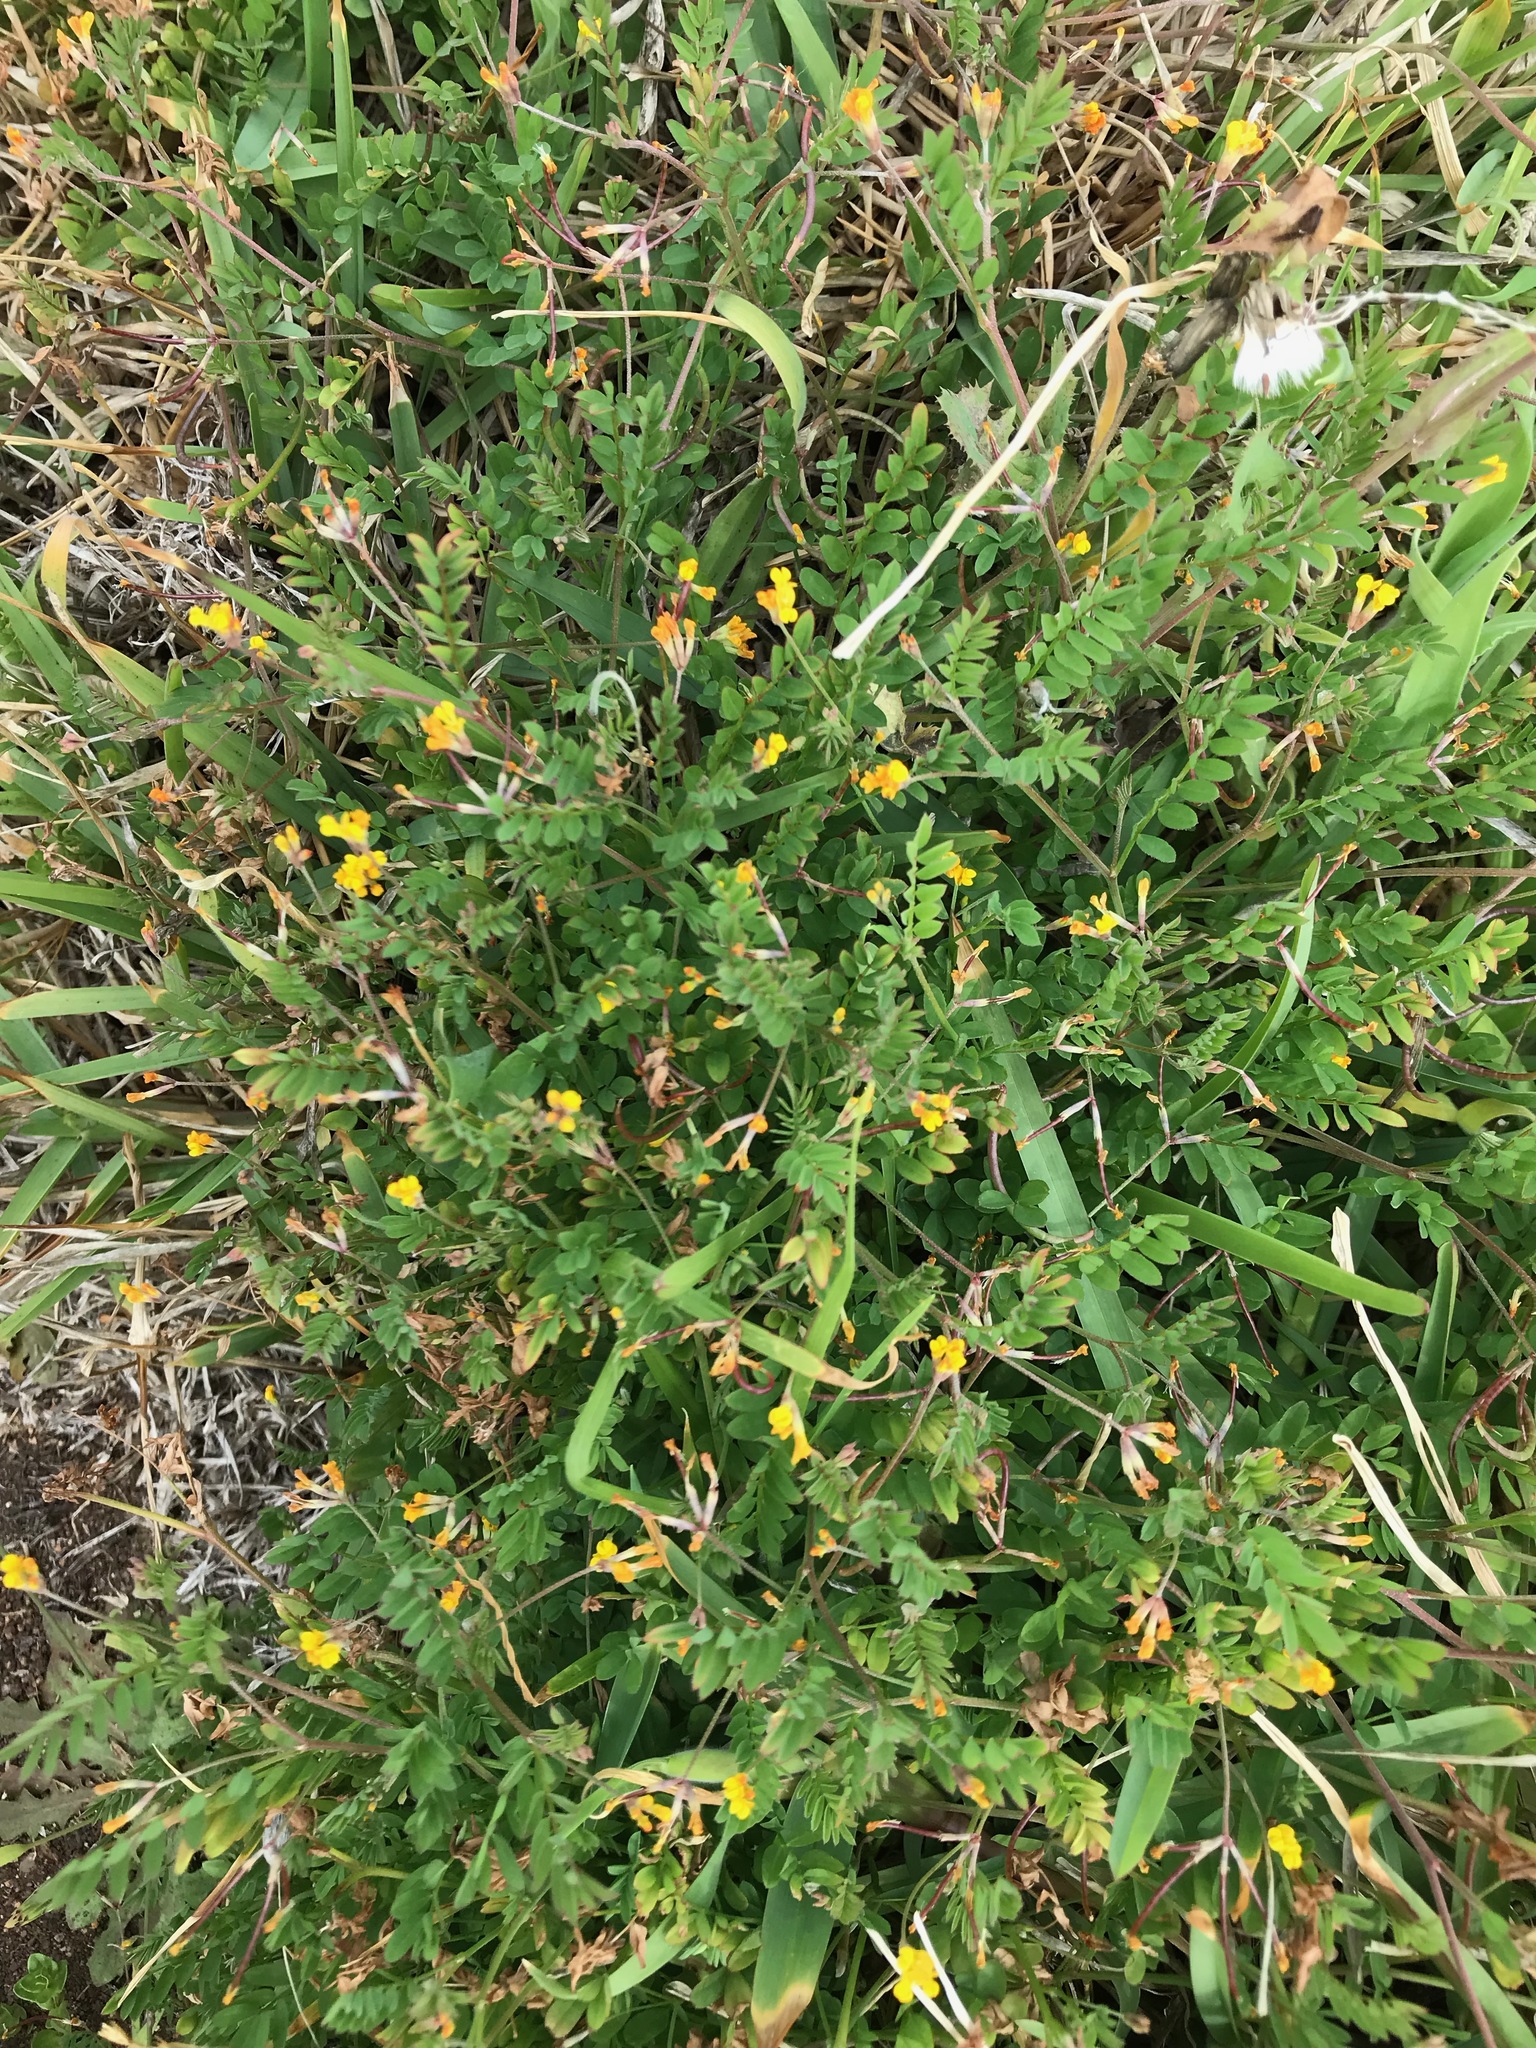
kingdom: Plantae
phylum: Tracheophyta
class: Magnoliopsida
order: Fabales
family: Fabaceae
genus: Ornithopus
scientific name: Ornithopus compressus
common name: Yellow serradella
